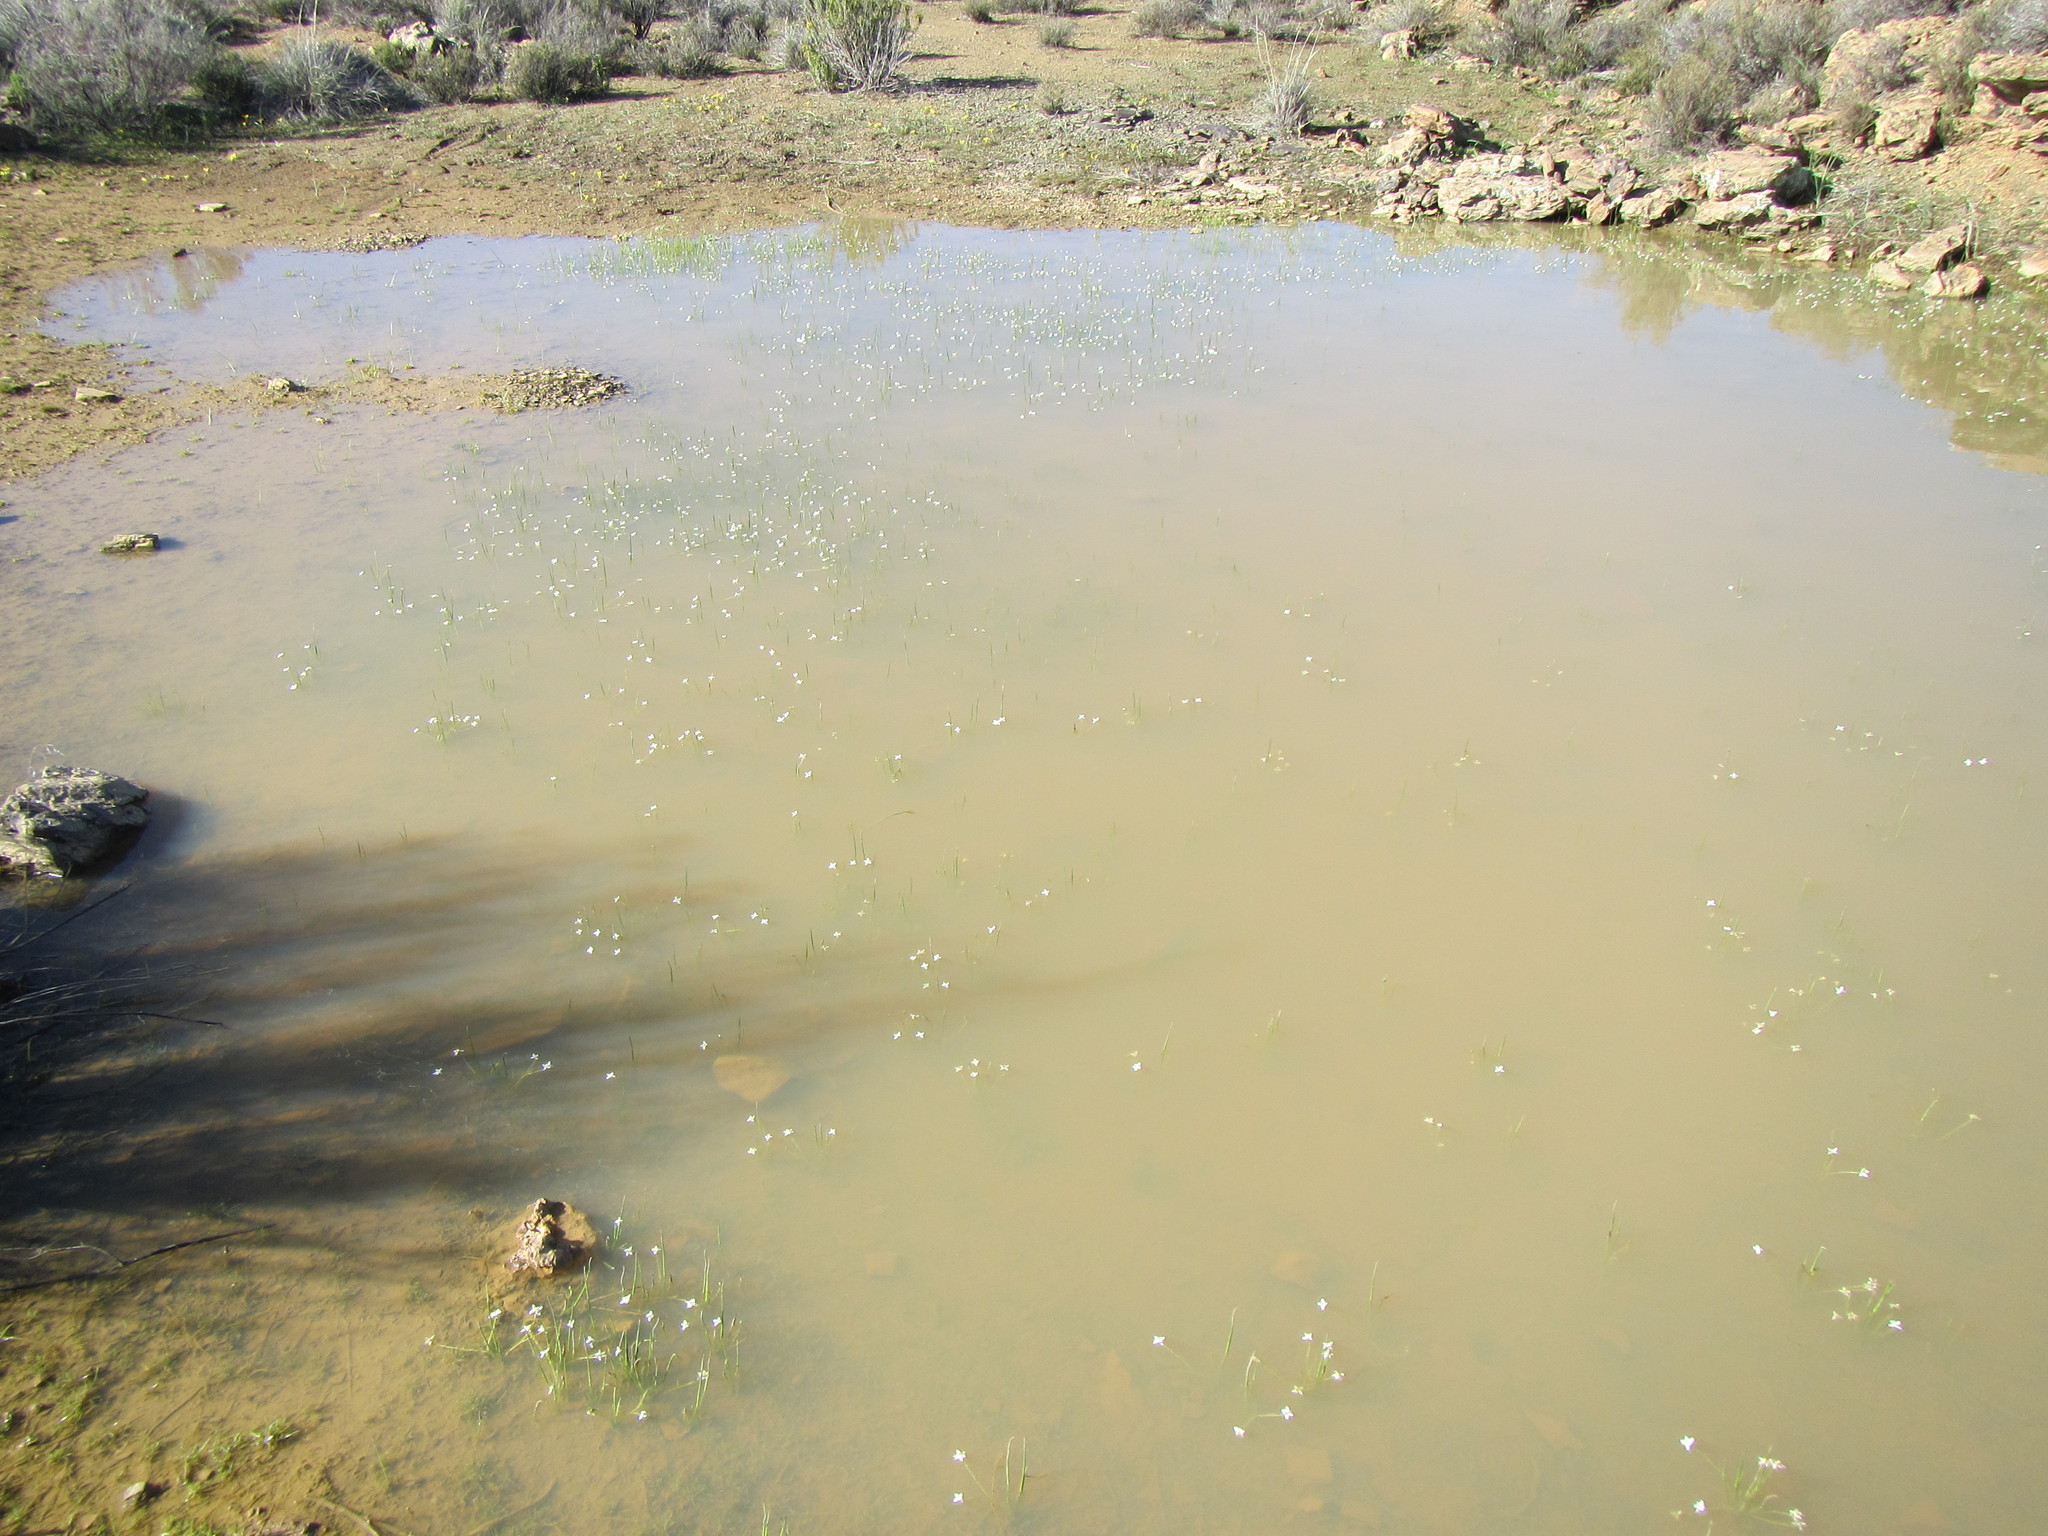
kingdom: Plantae
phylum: Tracheophyta
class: Liliopsida
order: Asparagales
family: Hypoxidaceae
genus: Pauridia
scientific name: Pauridia aquatica
